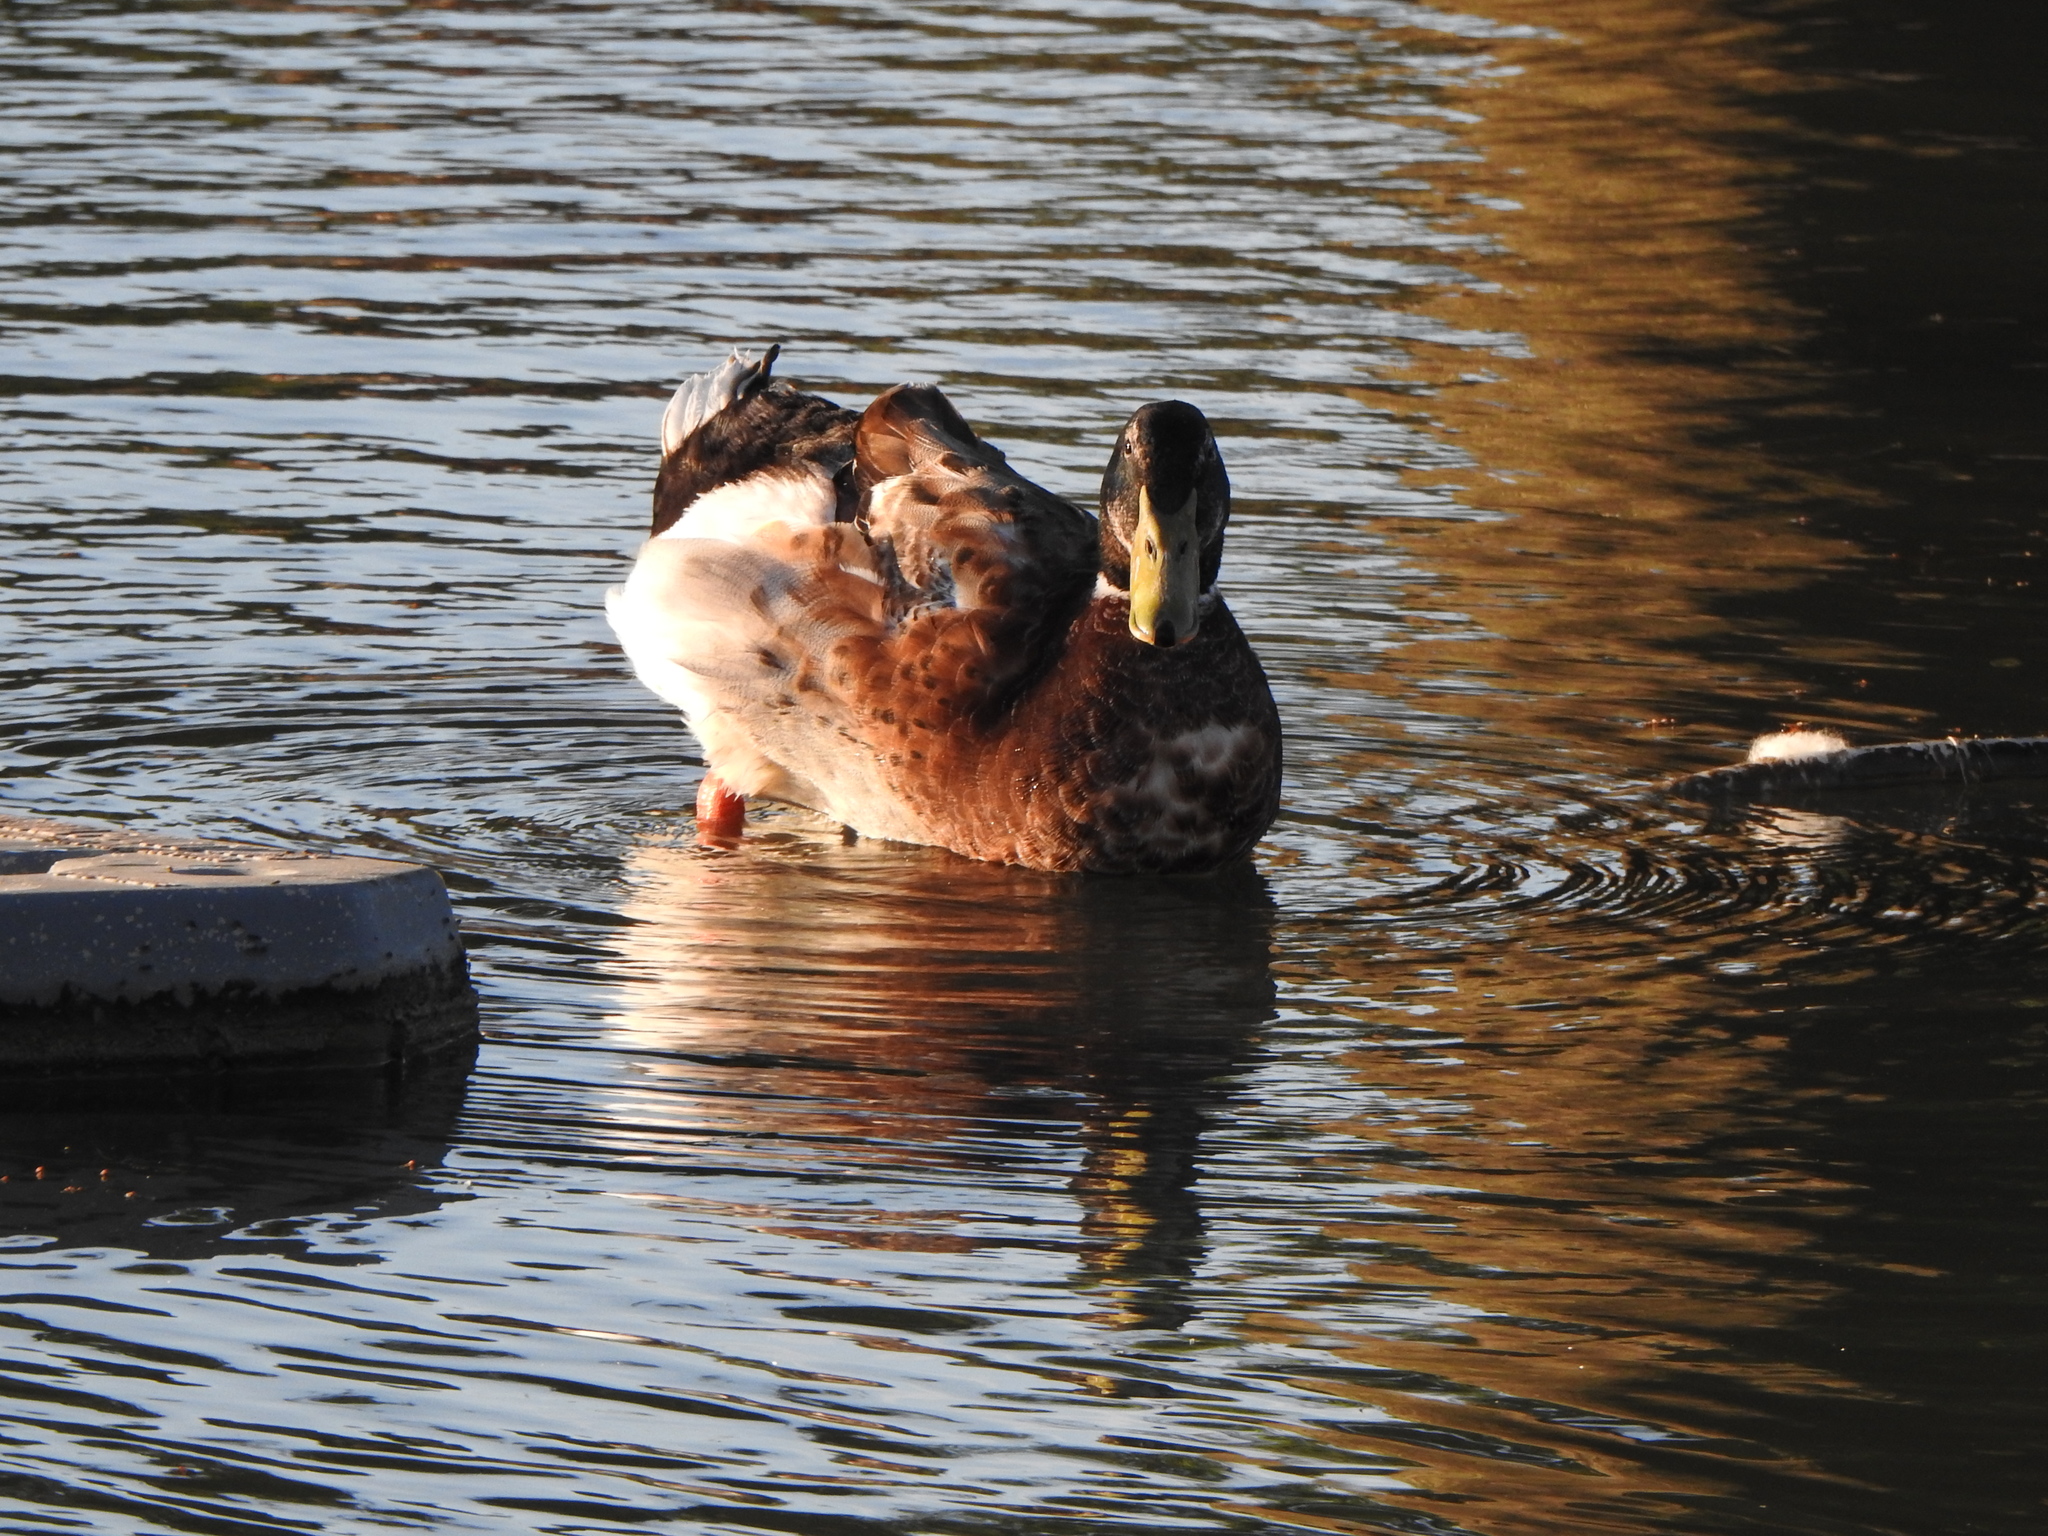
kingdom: Animalia
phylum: Chordata
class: Aves
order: Anseriformes
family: Anatidae
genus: Anas
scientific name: Anas platyrhynchos
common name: Mallard
